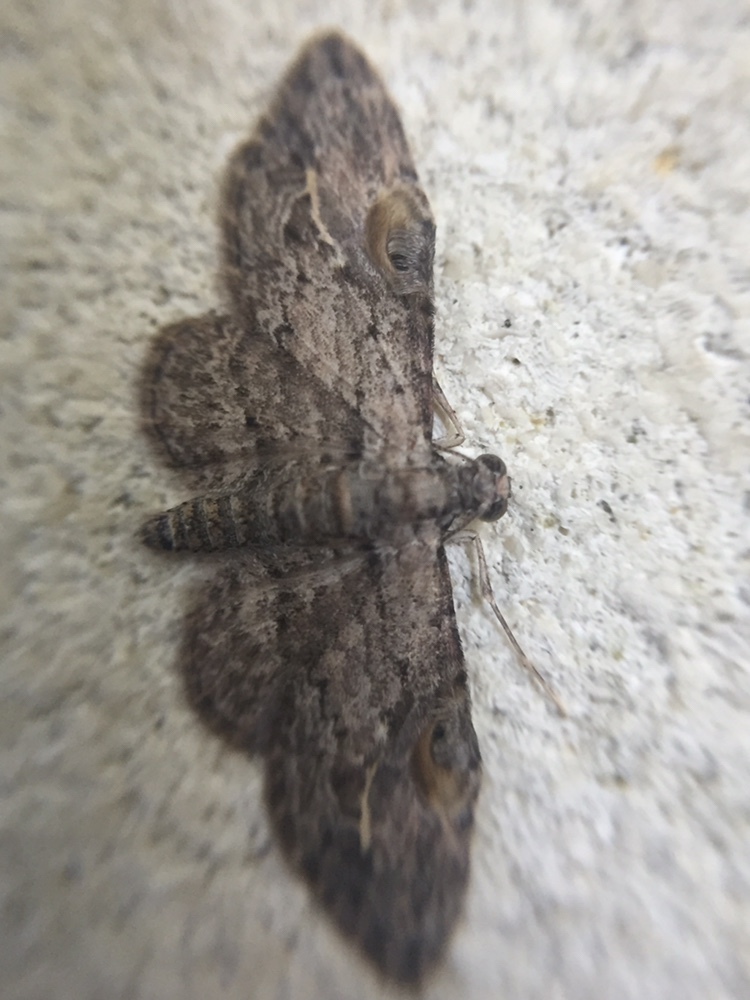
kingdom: Animalia
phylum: Arthropoda
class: Insecta
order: Lepidoptera
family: Geometridae
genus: Chloroclystis
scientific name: Chloroclystis insigillata
